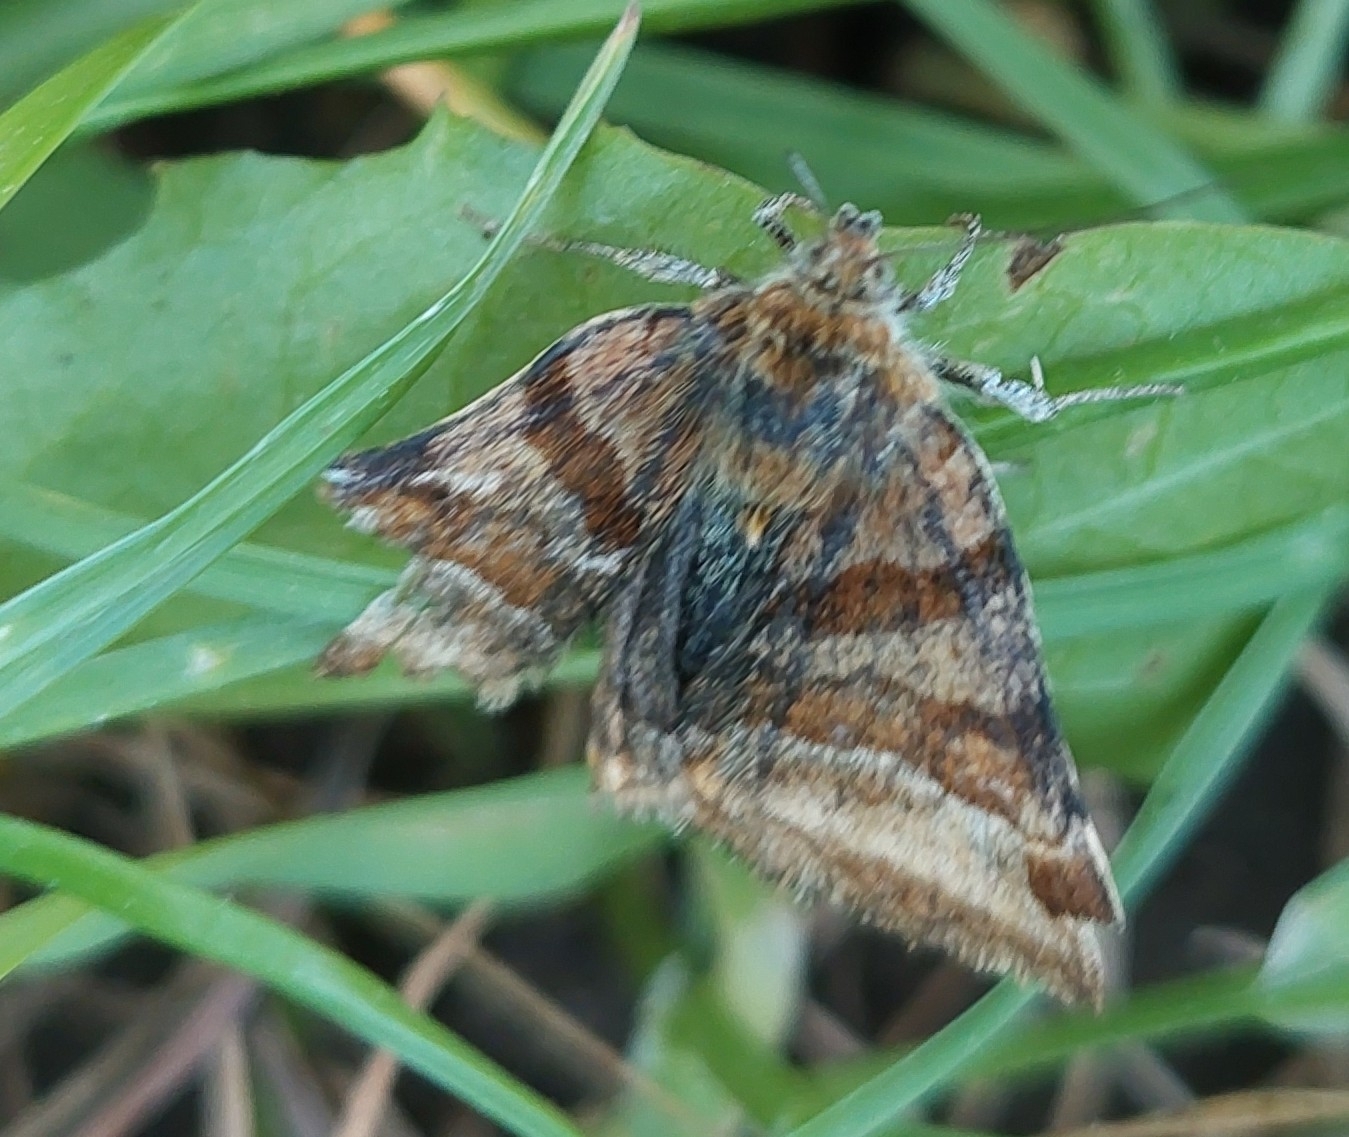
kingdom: Animalia
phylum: Arthropoda
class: Insecta
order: Lepidoptera
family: Erebidae
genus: Euclidia
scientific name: Euclidia glyphica
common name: Burnet companion
